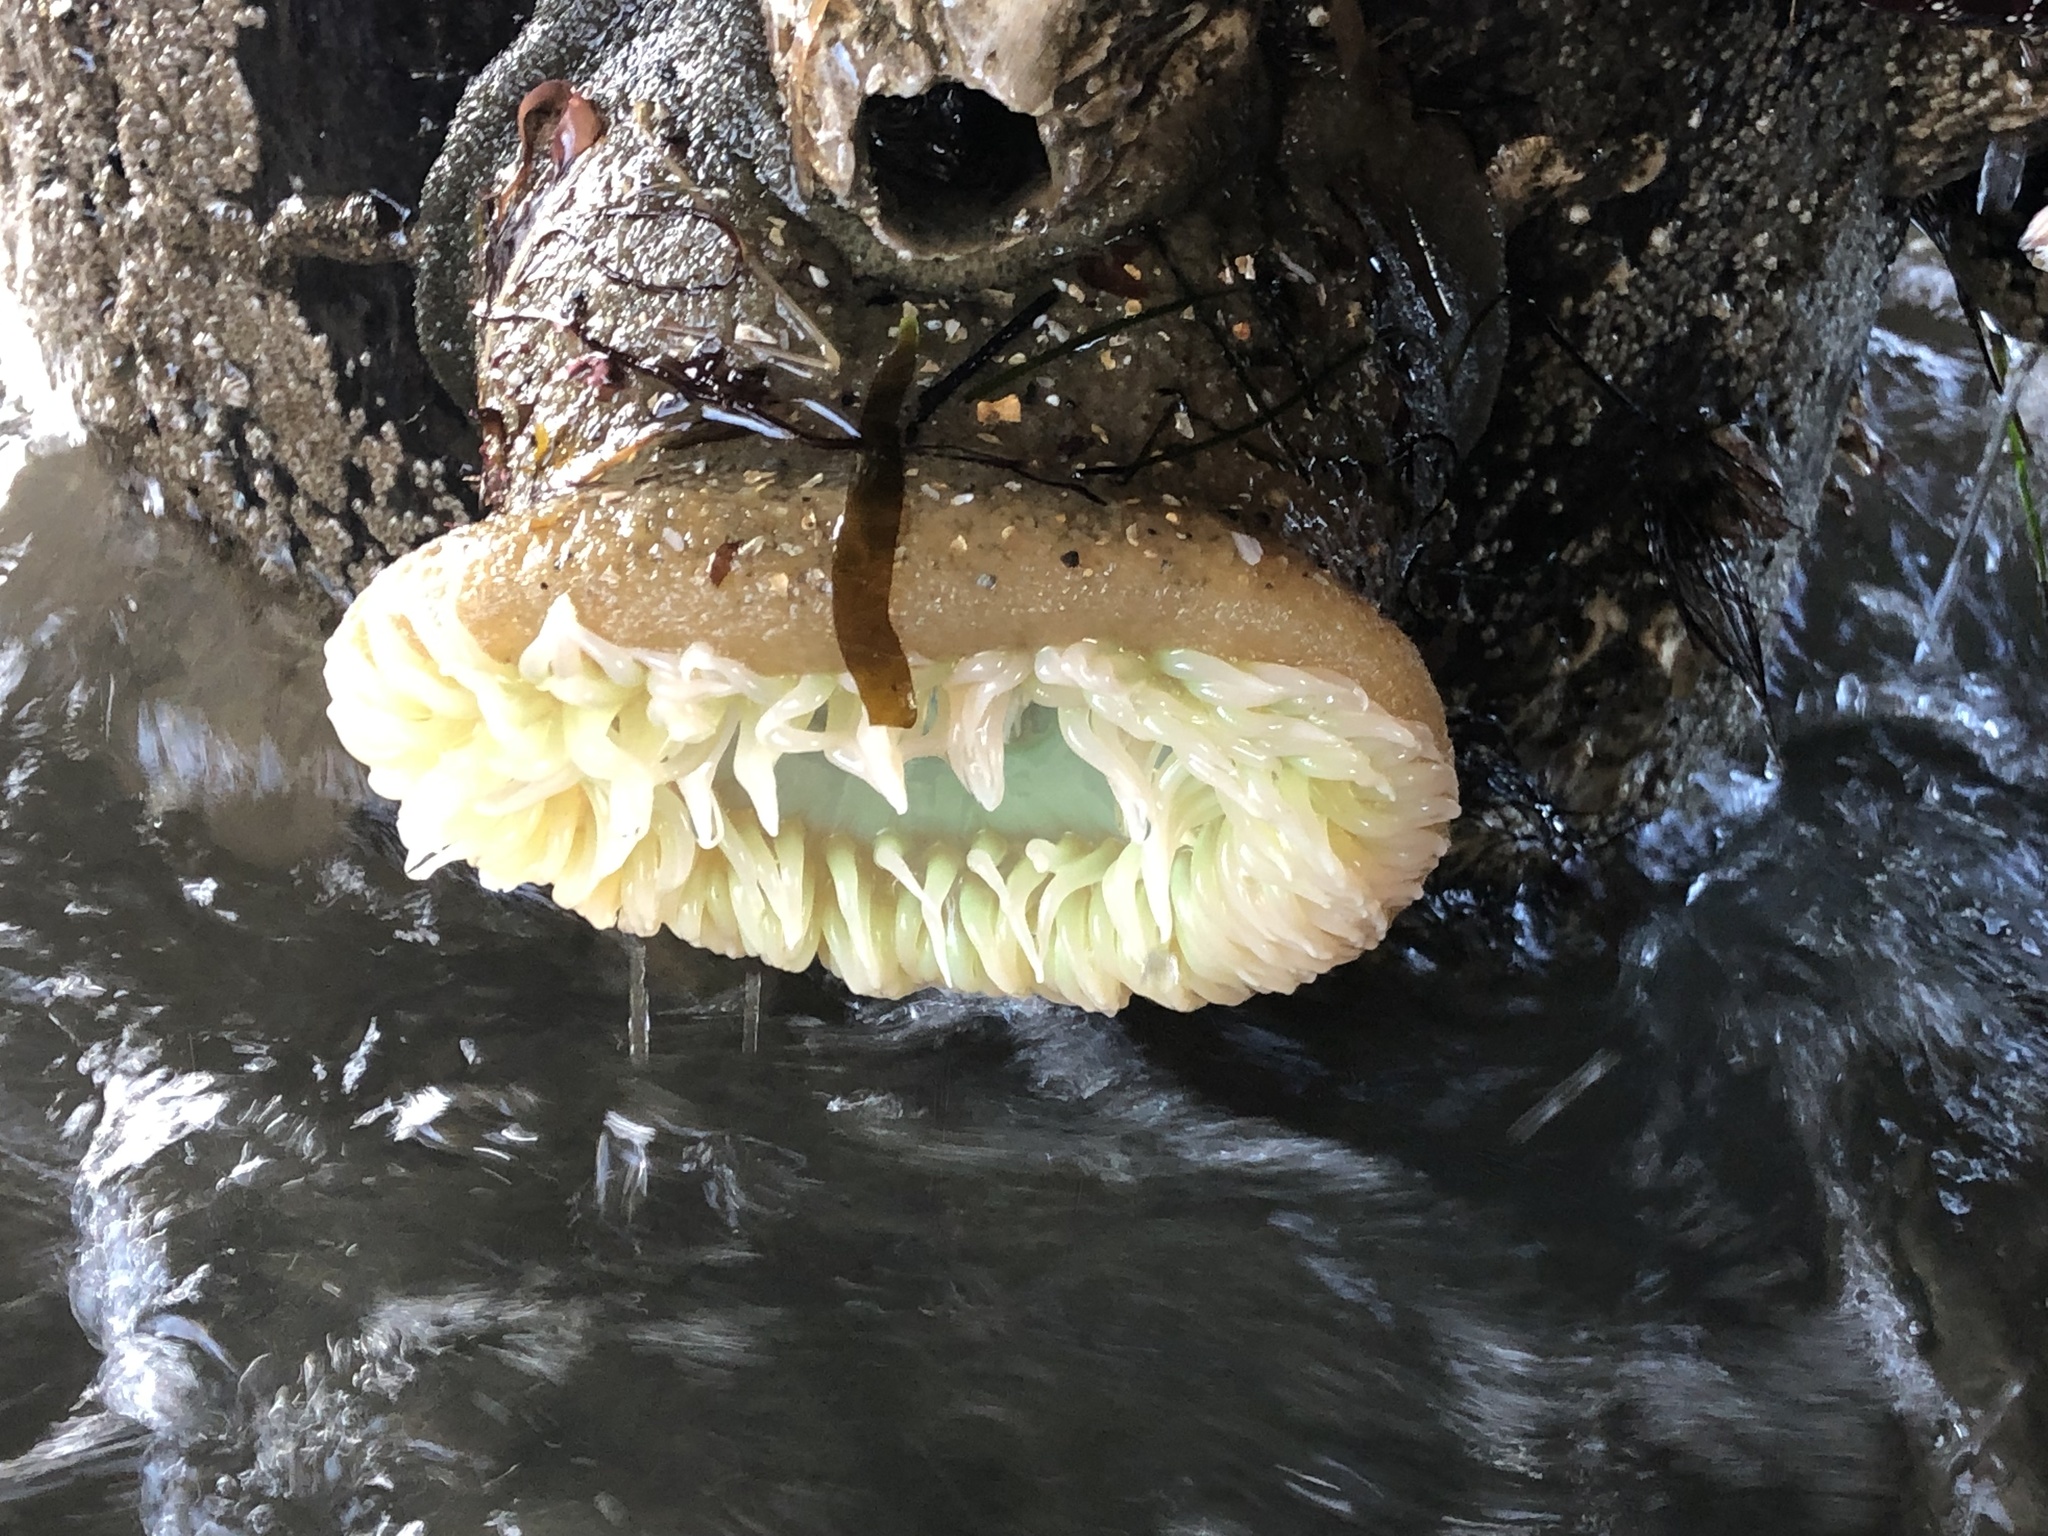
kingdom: Animalia
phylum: Cnidaria
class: Anthozoa
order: Actiniaria
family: Actiniidae
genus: Anthopleura
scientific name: Anthopleura xanthogrammica
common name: Giant green anemone
